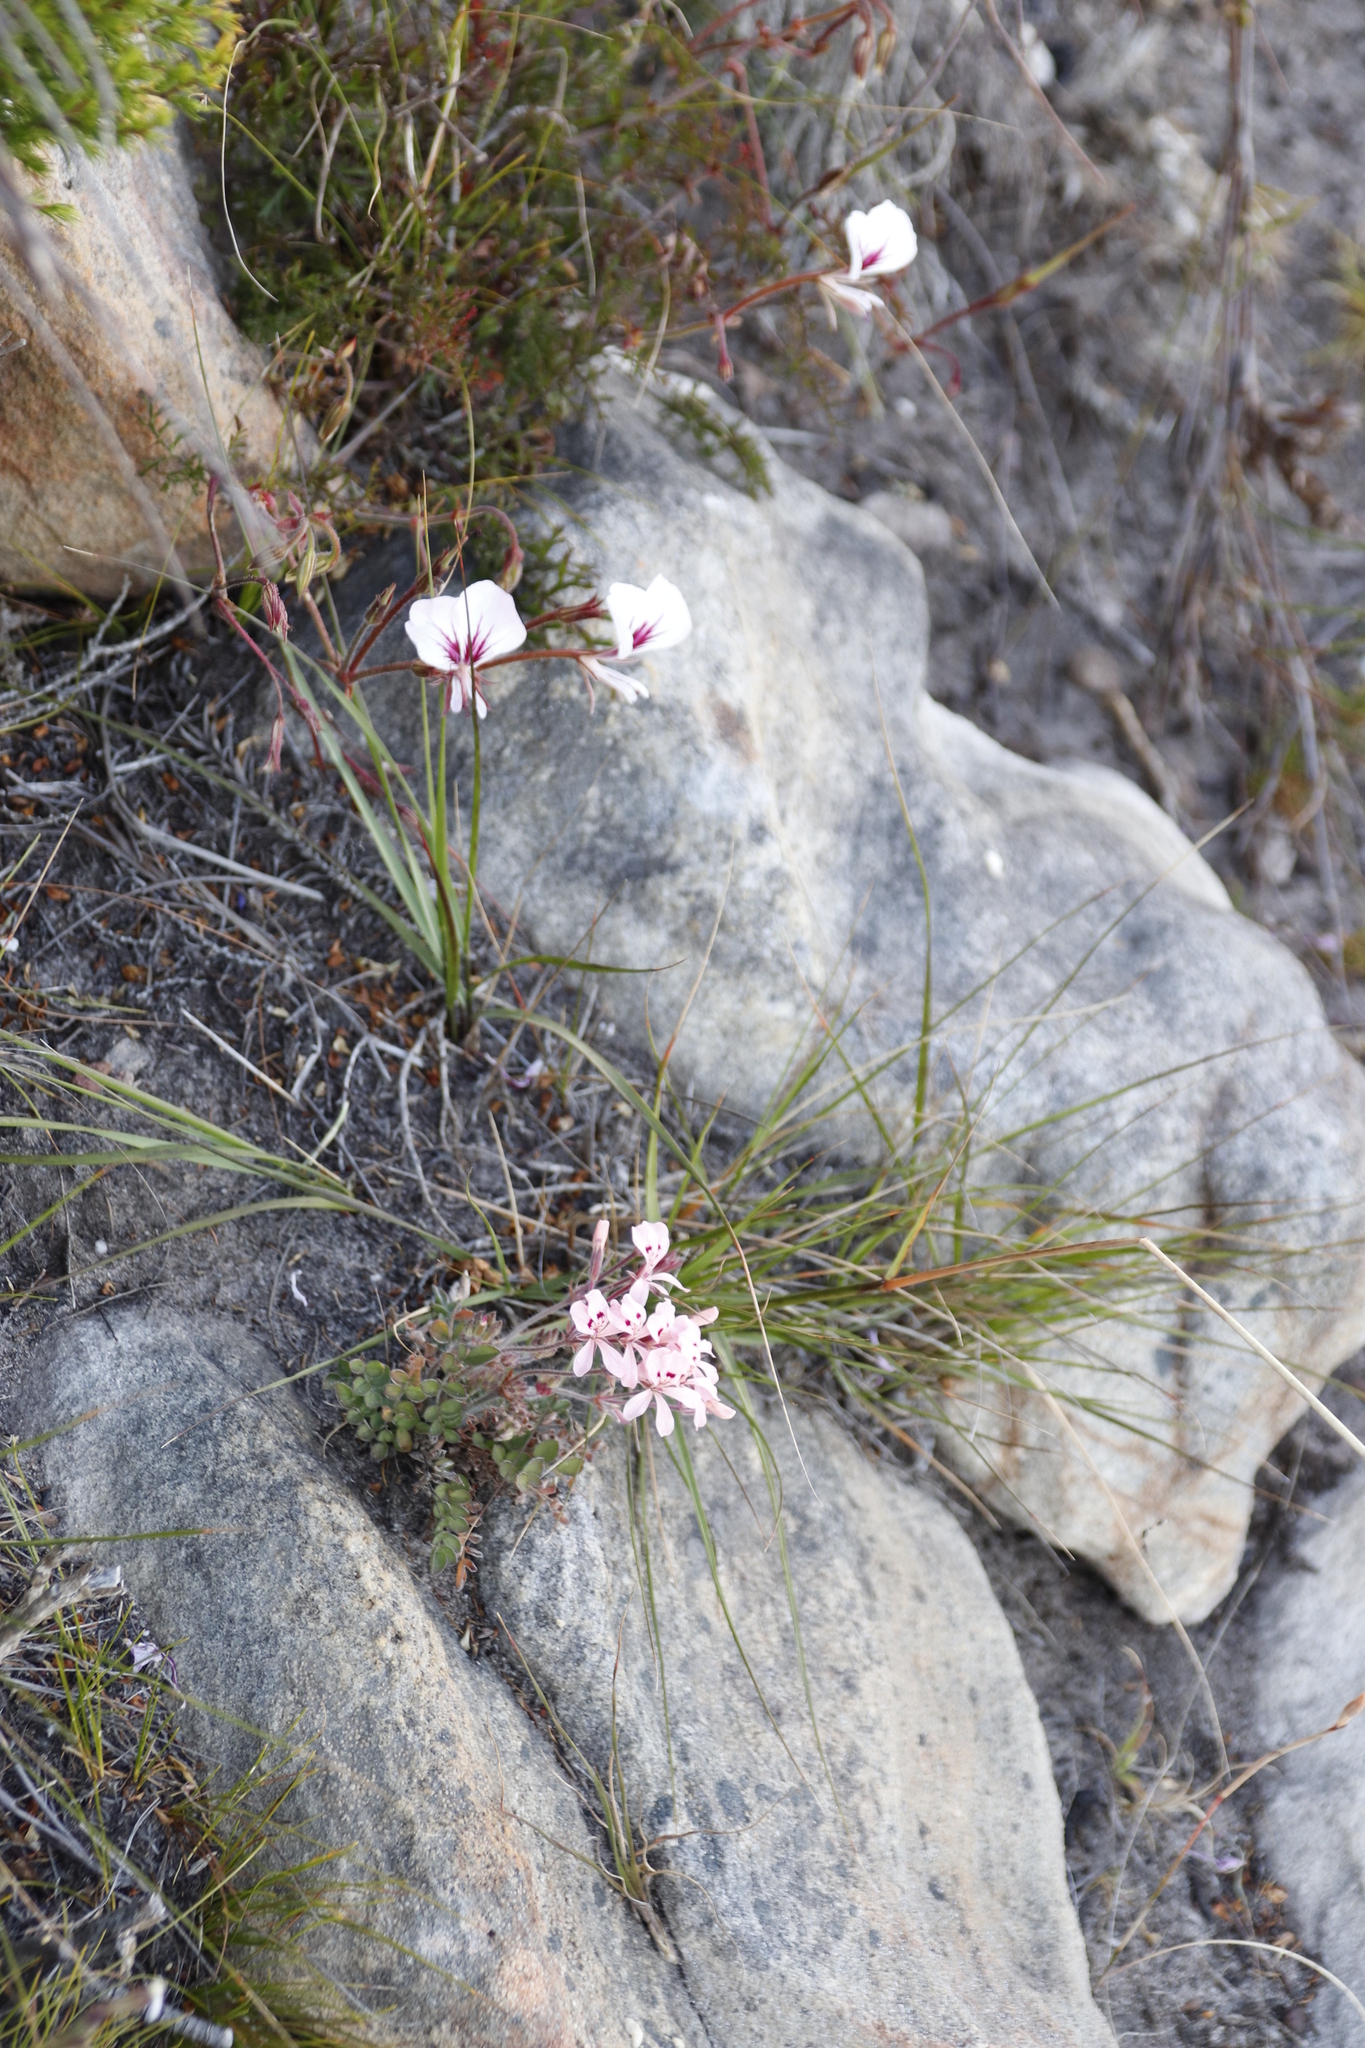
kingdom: Plantae
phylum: Tracheophyta
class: Magnoliopsida
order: Geraniales
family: Geraniaceae
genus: Pelargonium
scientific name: Pelargonium pinnatum
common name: Pinnated pelargonium
